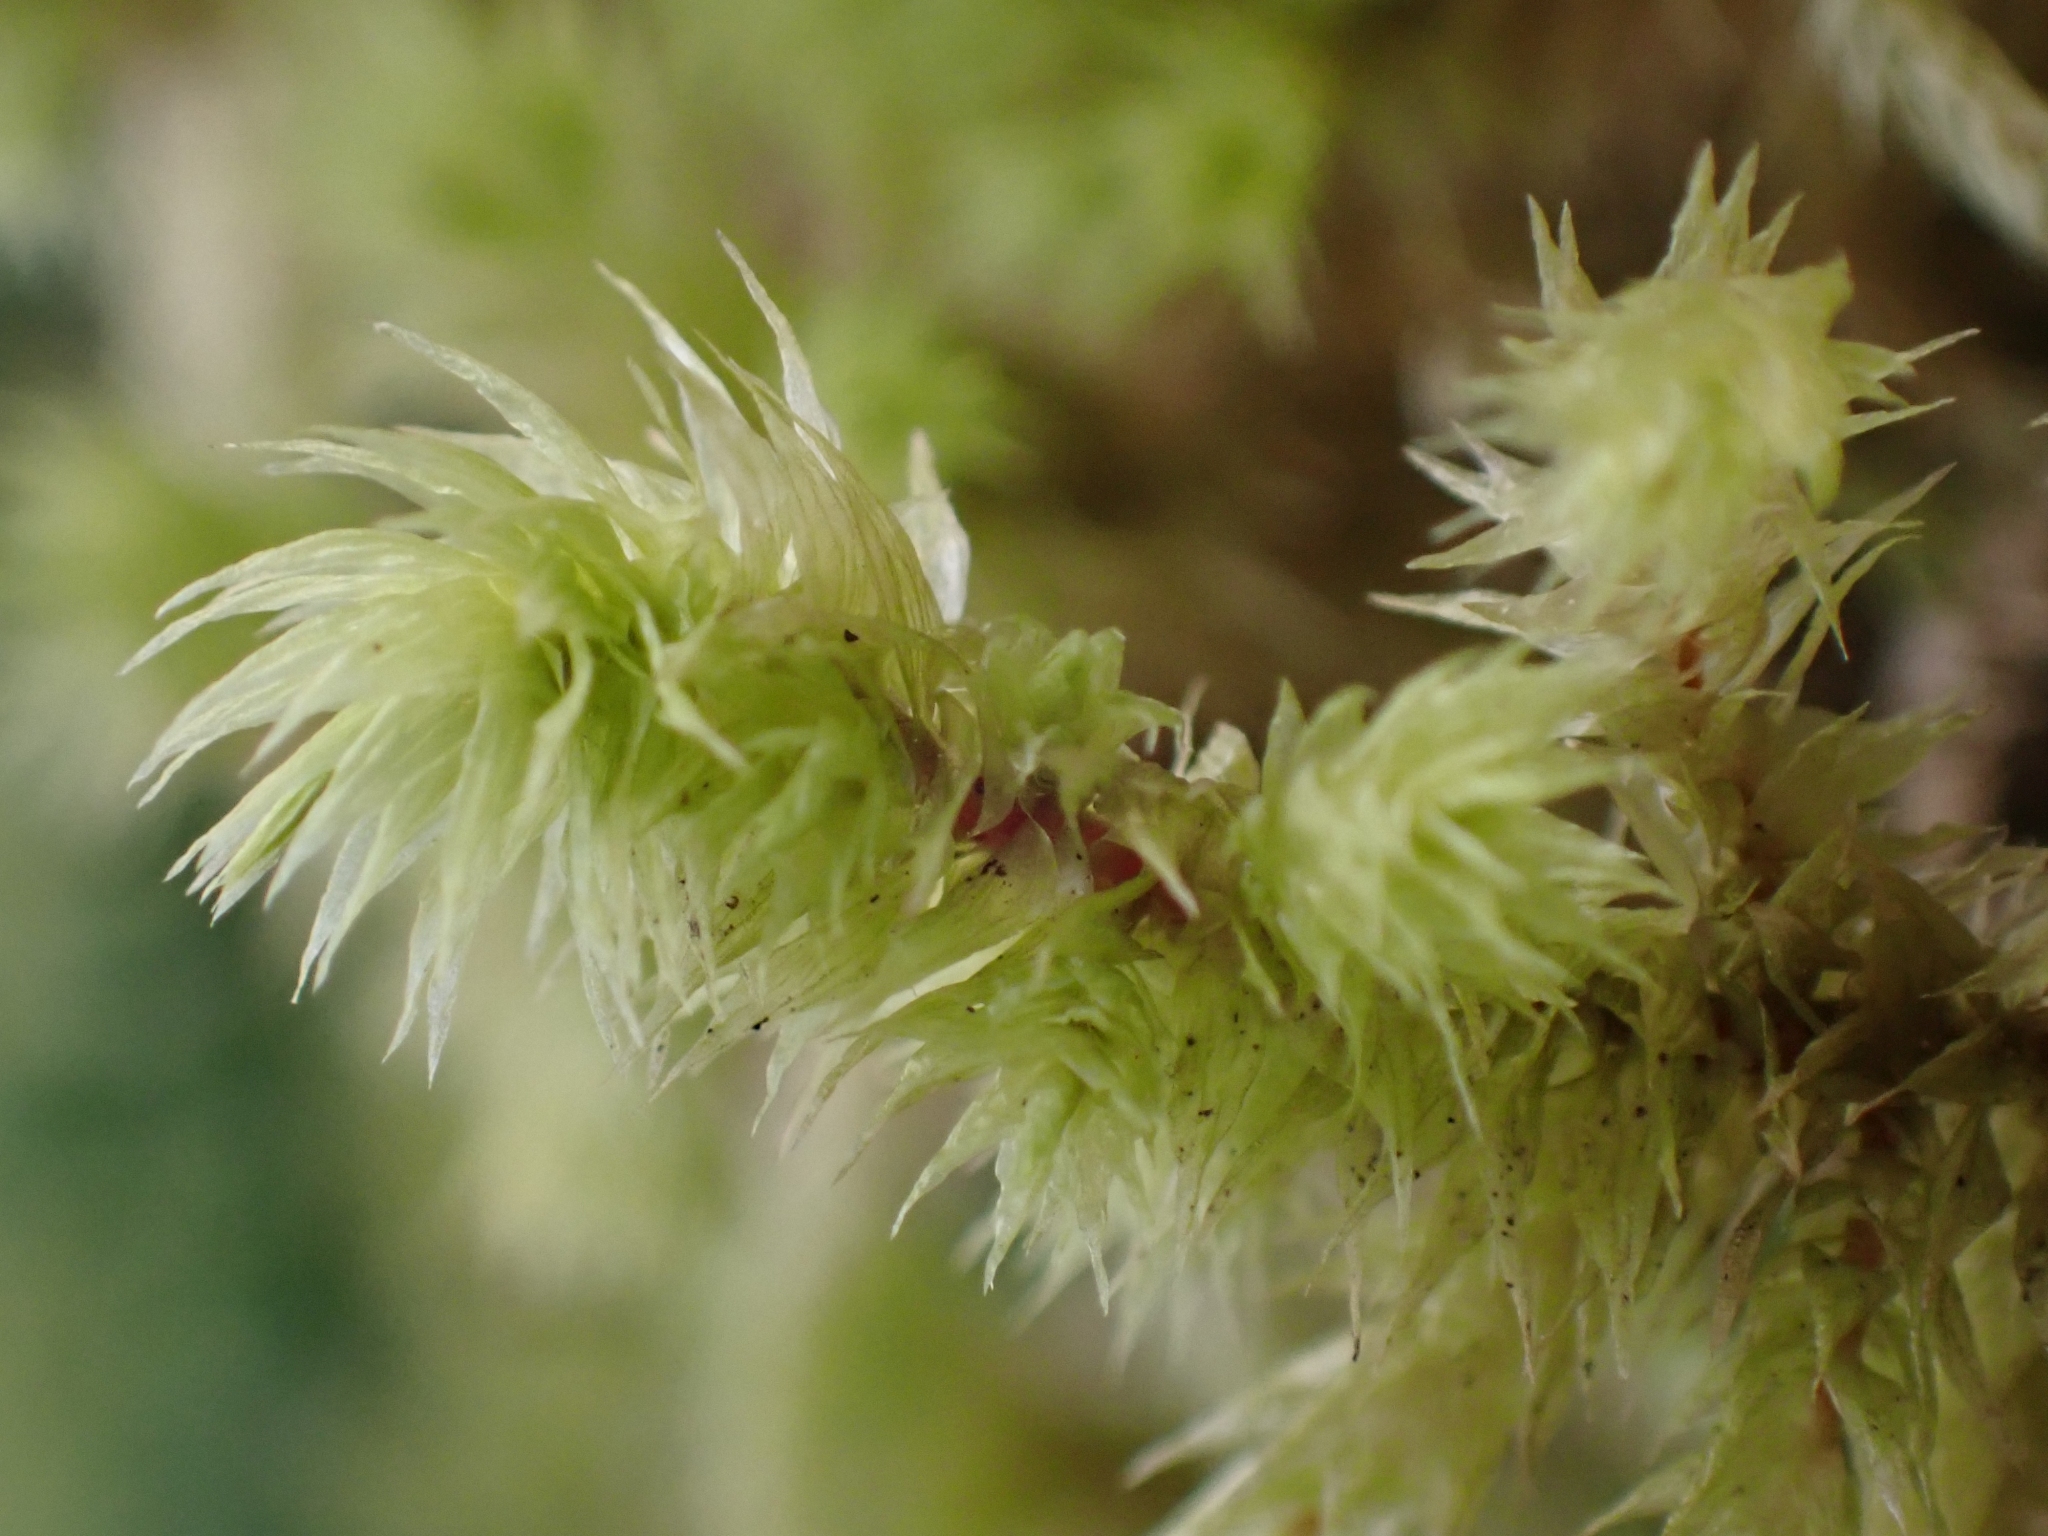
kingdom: Plantae
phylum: Bryophyta
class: Bryopsida
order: Hypnales
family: Hylocomiaceae
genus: Hylocomiadelphus
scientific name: Hylocomiadelphus triquetrus
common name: Rough goose neck moss
